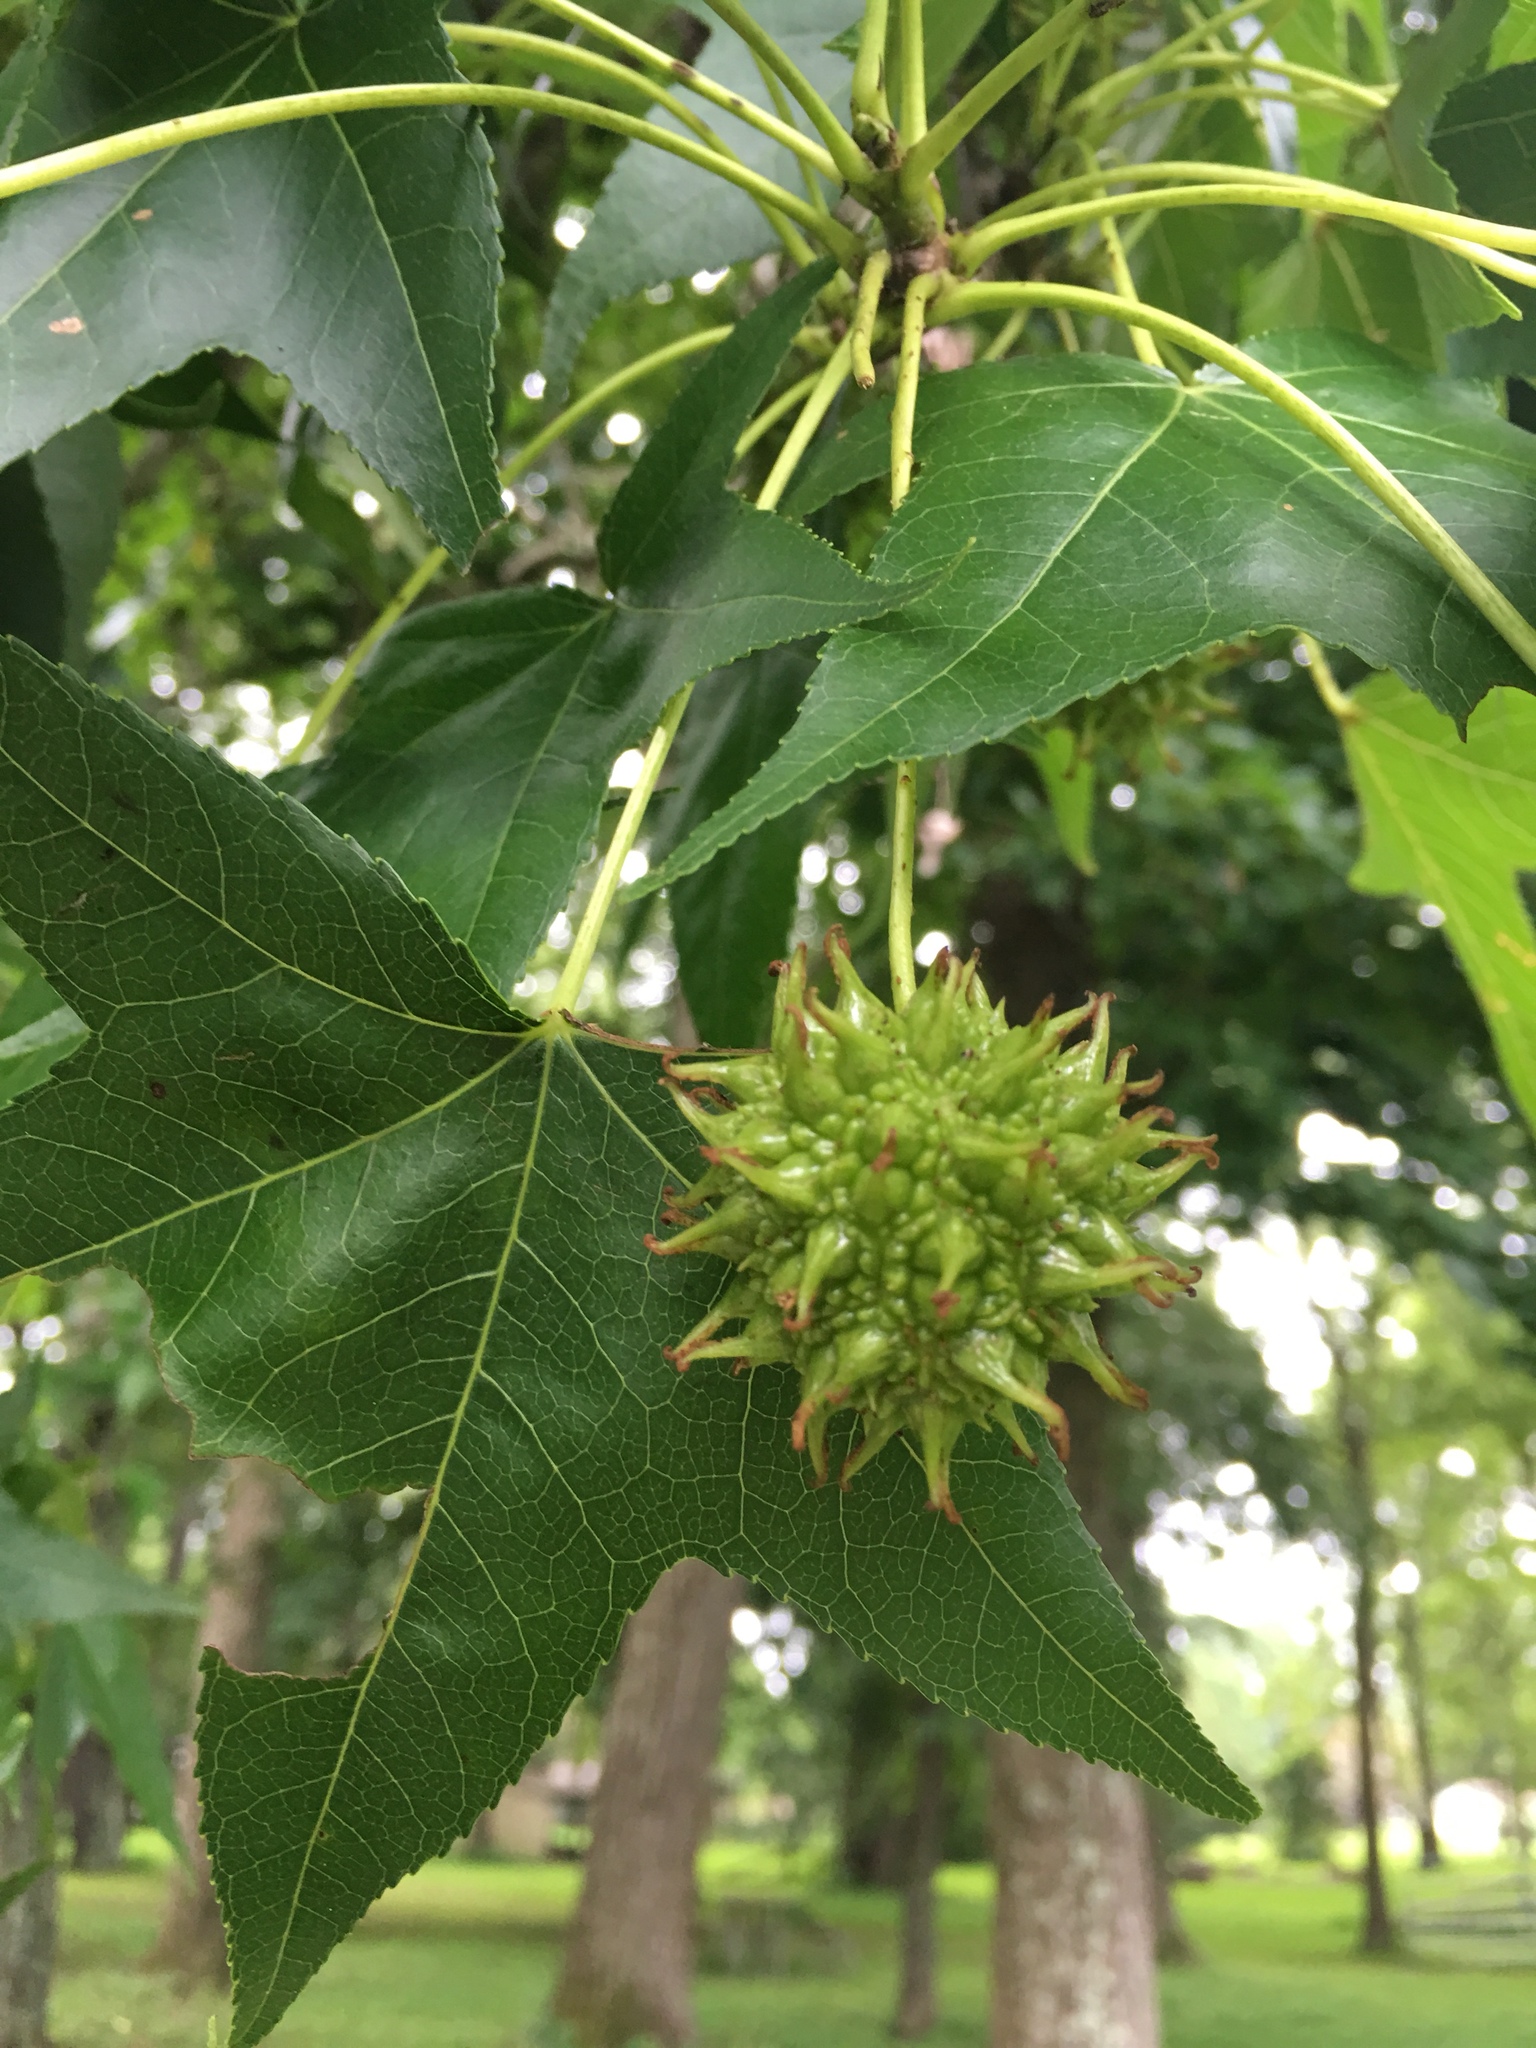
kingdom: Plantae
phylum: Tracheophyta
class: Magnoliopsida
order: Saxifragales
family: Altingiaceae
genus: Liquidambar
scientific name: Liquidambar styraciflua
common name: Sweet gum
